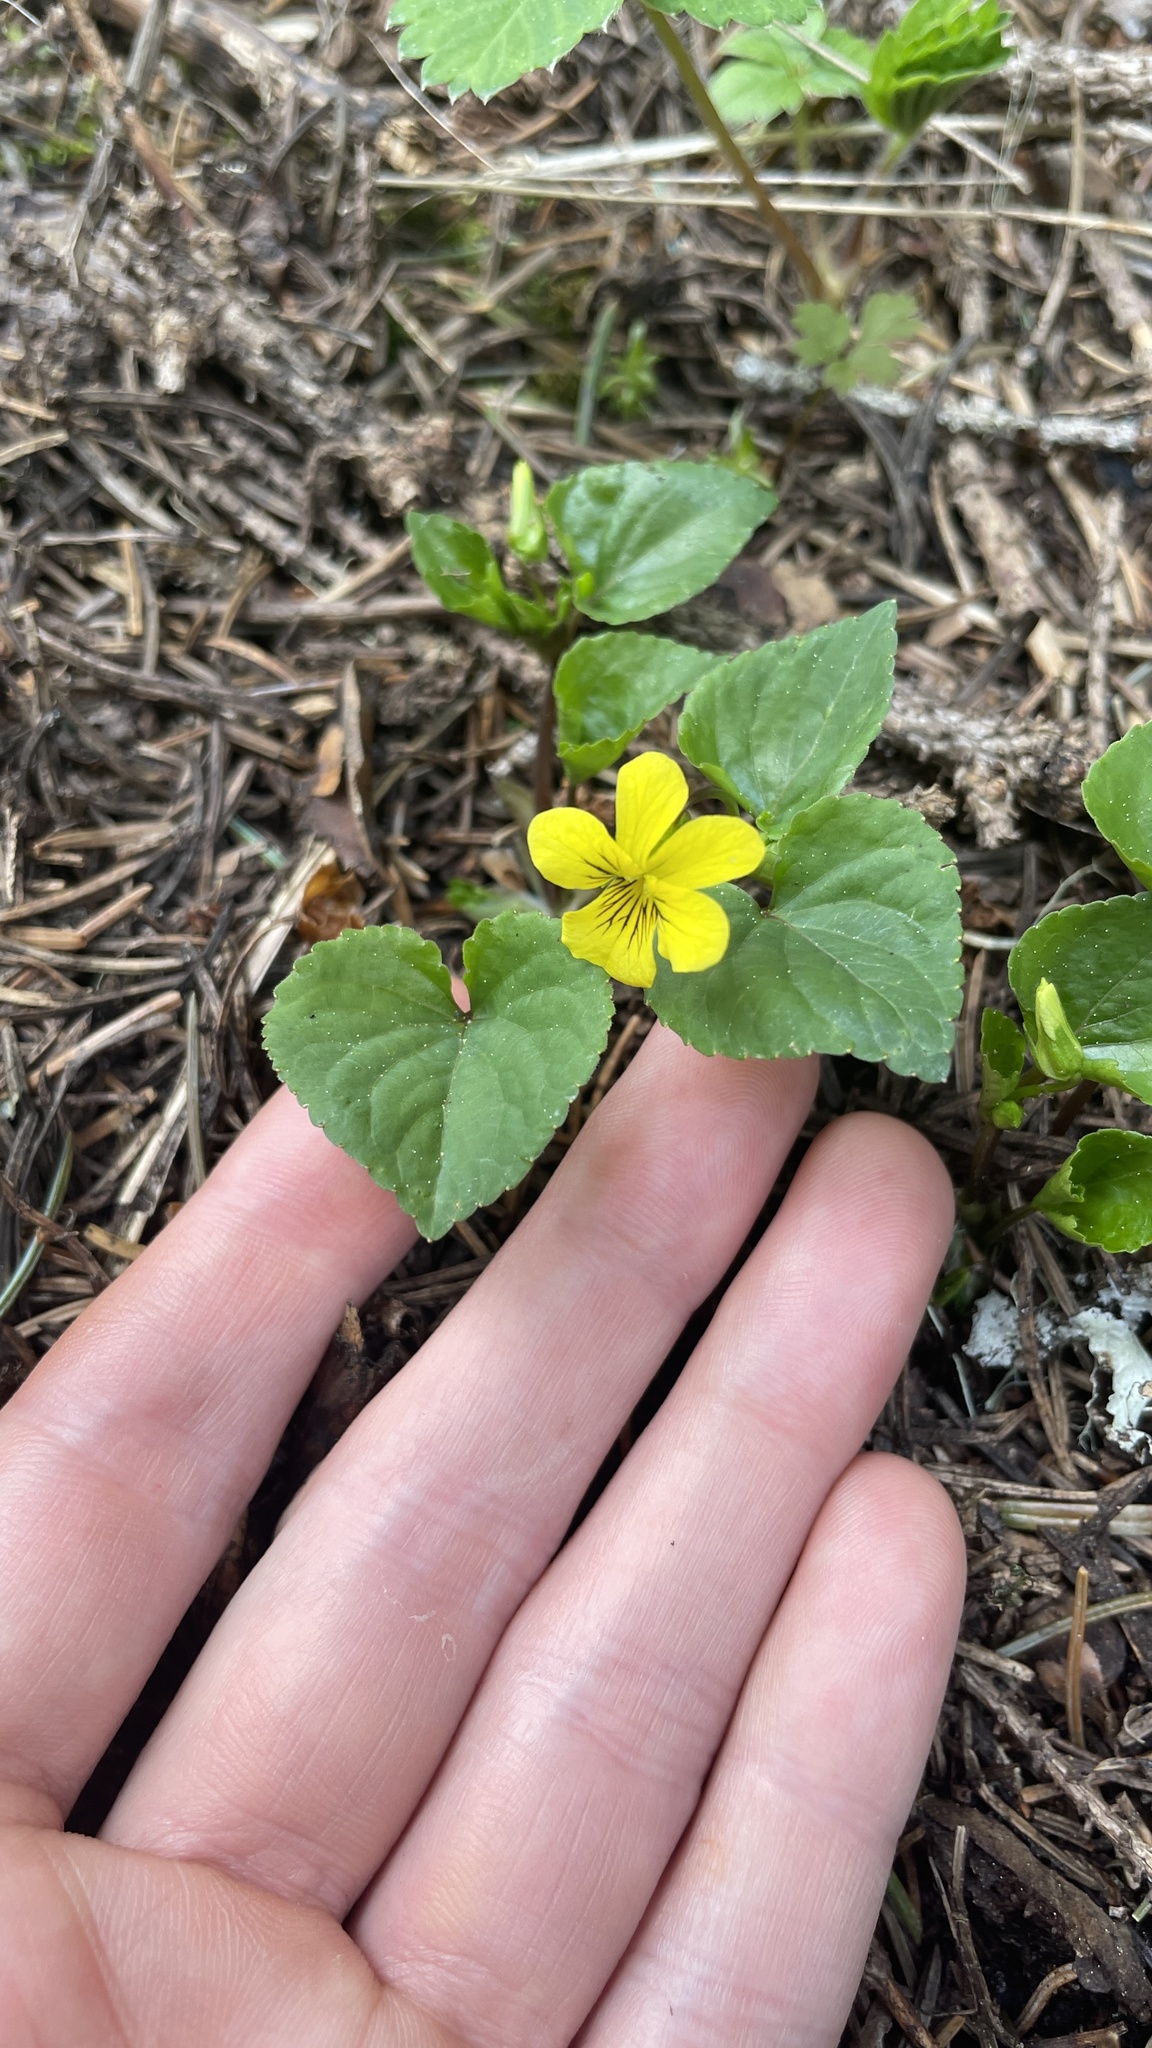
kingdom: Plantae
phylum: Tracheophyta
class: Magnoliopsida
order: Malpighiales
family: Violaceae
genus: Viola
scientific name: Viola glabella
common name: Stream violet
